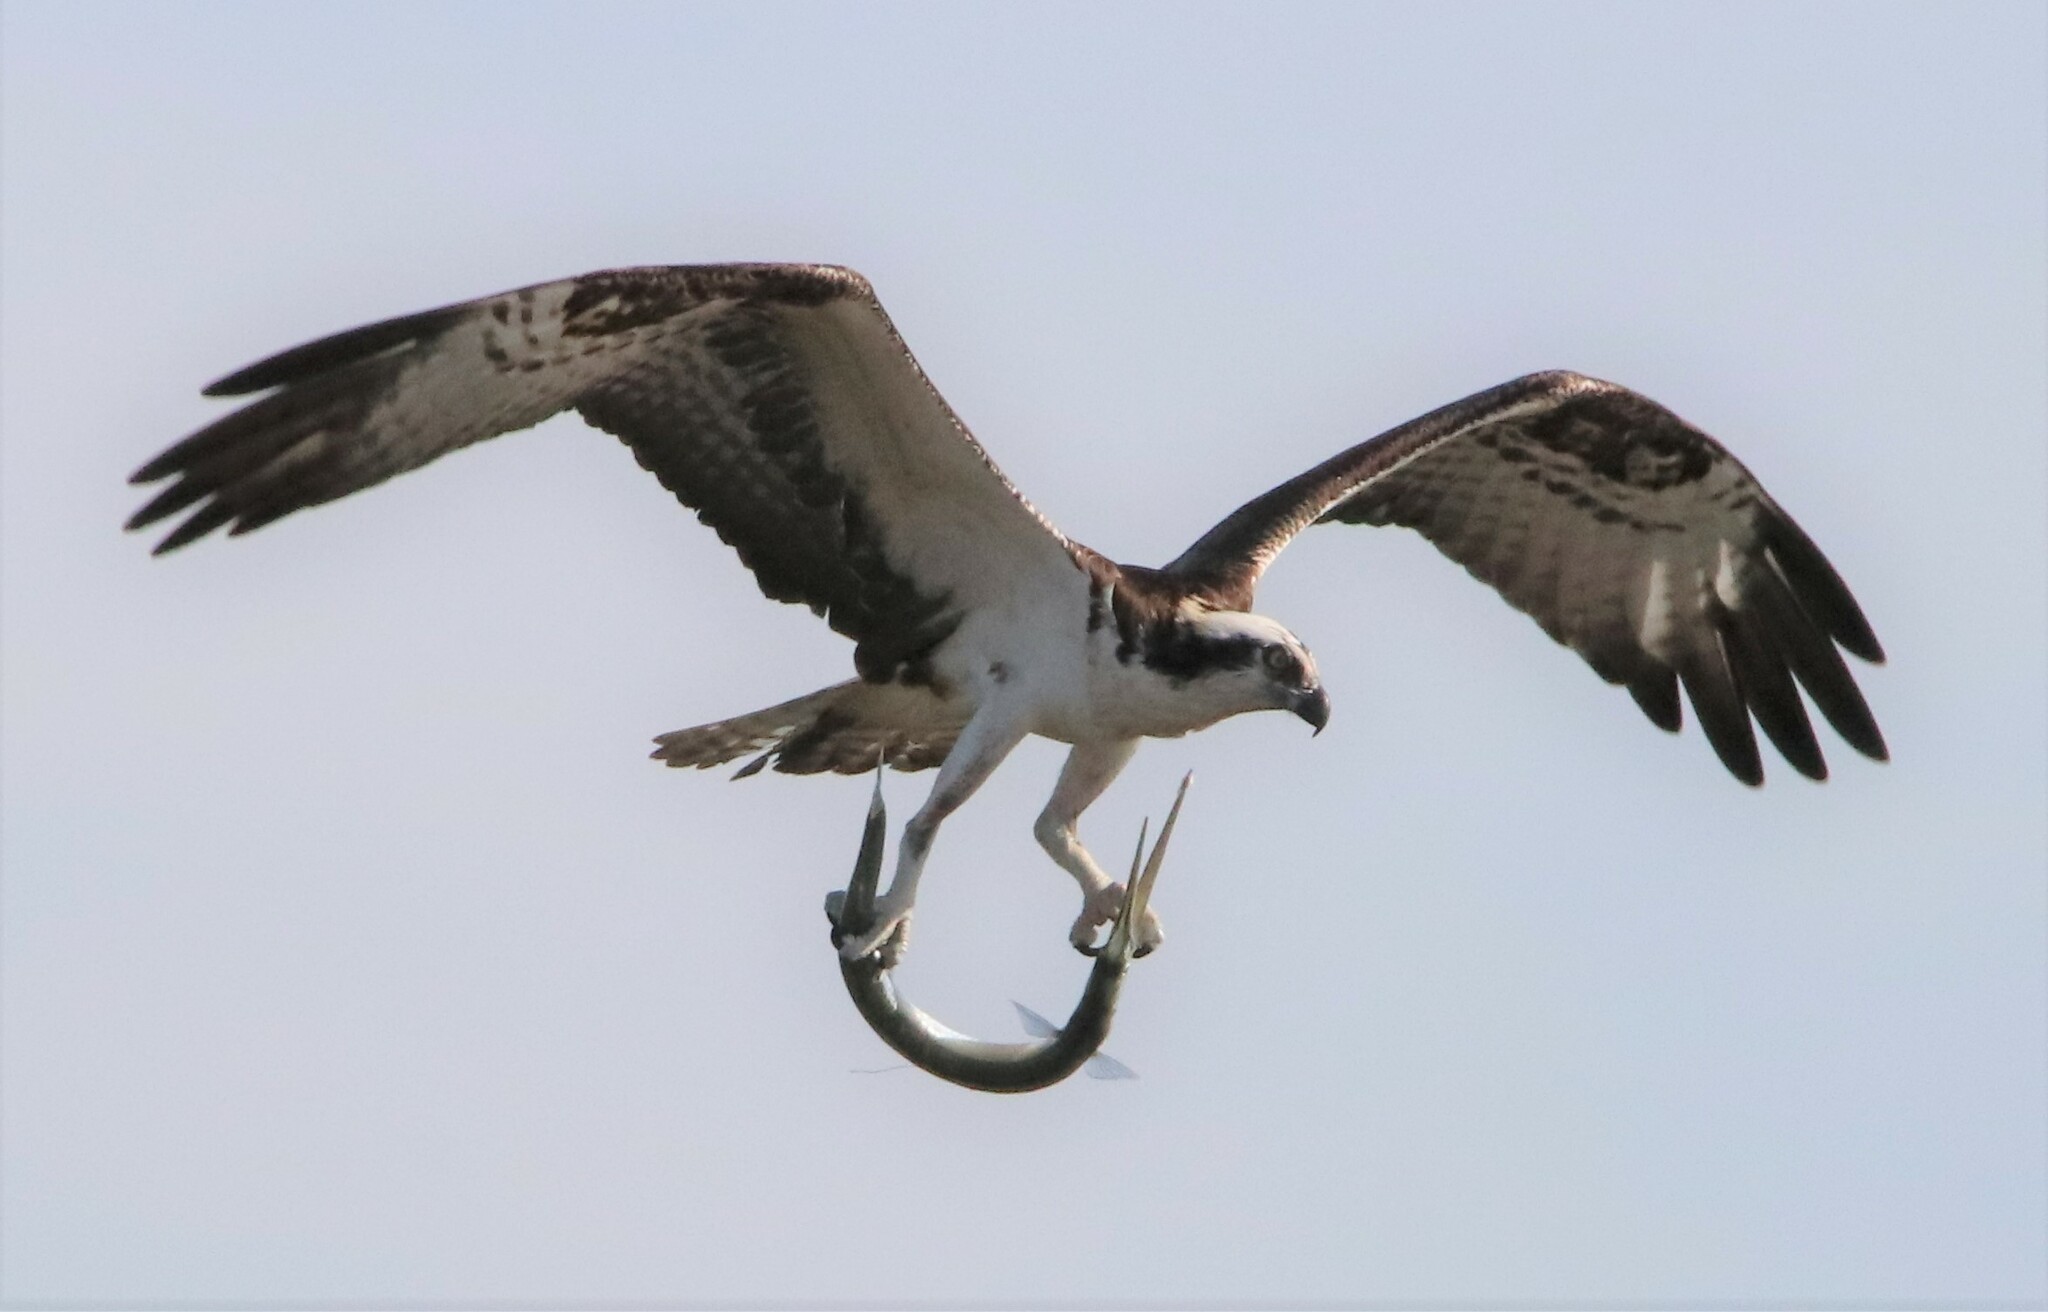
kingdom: Animalia
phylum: Chordata
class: Aves
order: Accipitriformes
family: Pandionidae
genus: Pandion
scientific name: Pandion haliaetus
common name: Osprey
